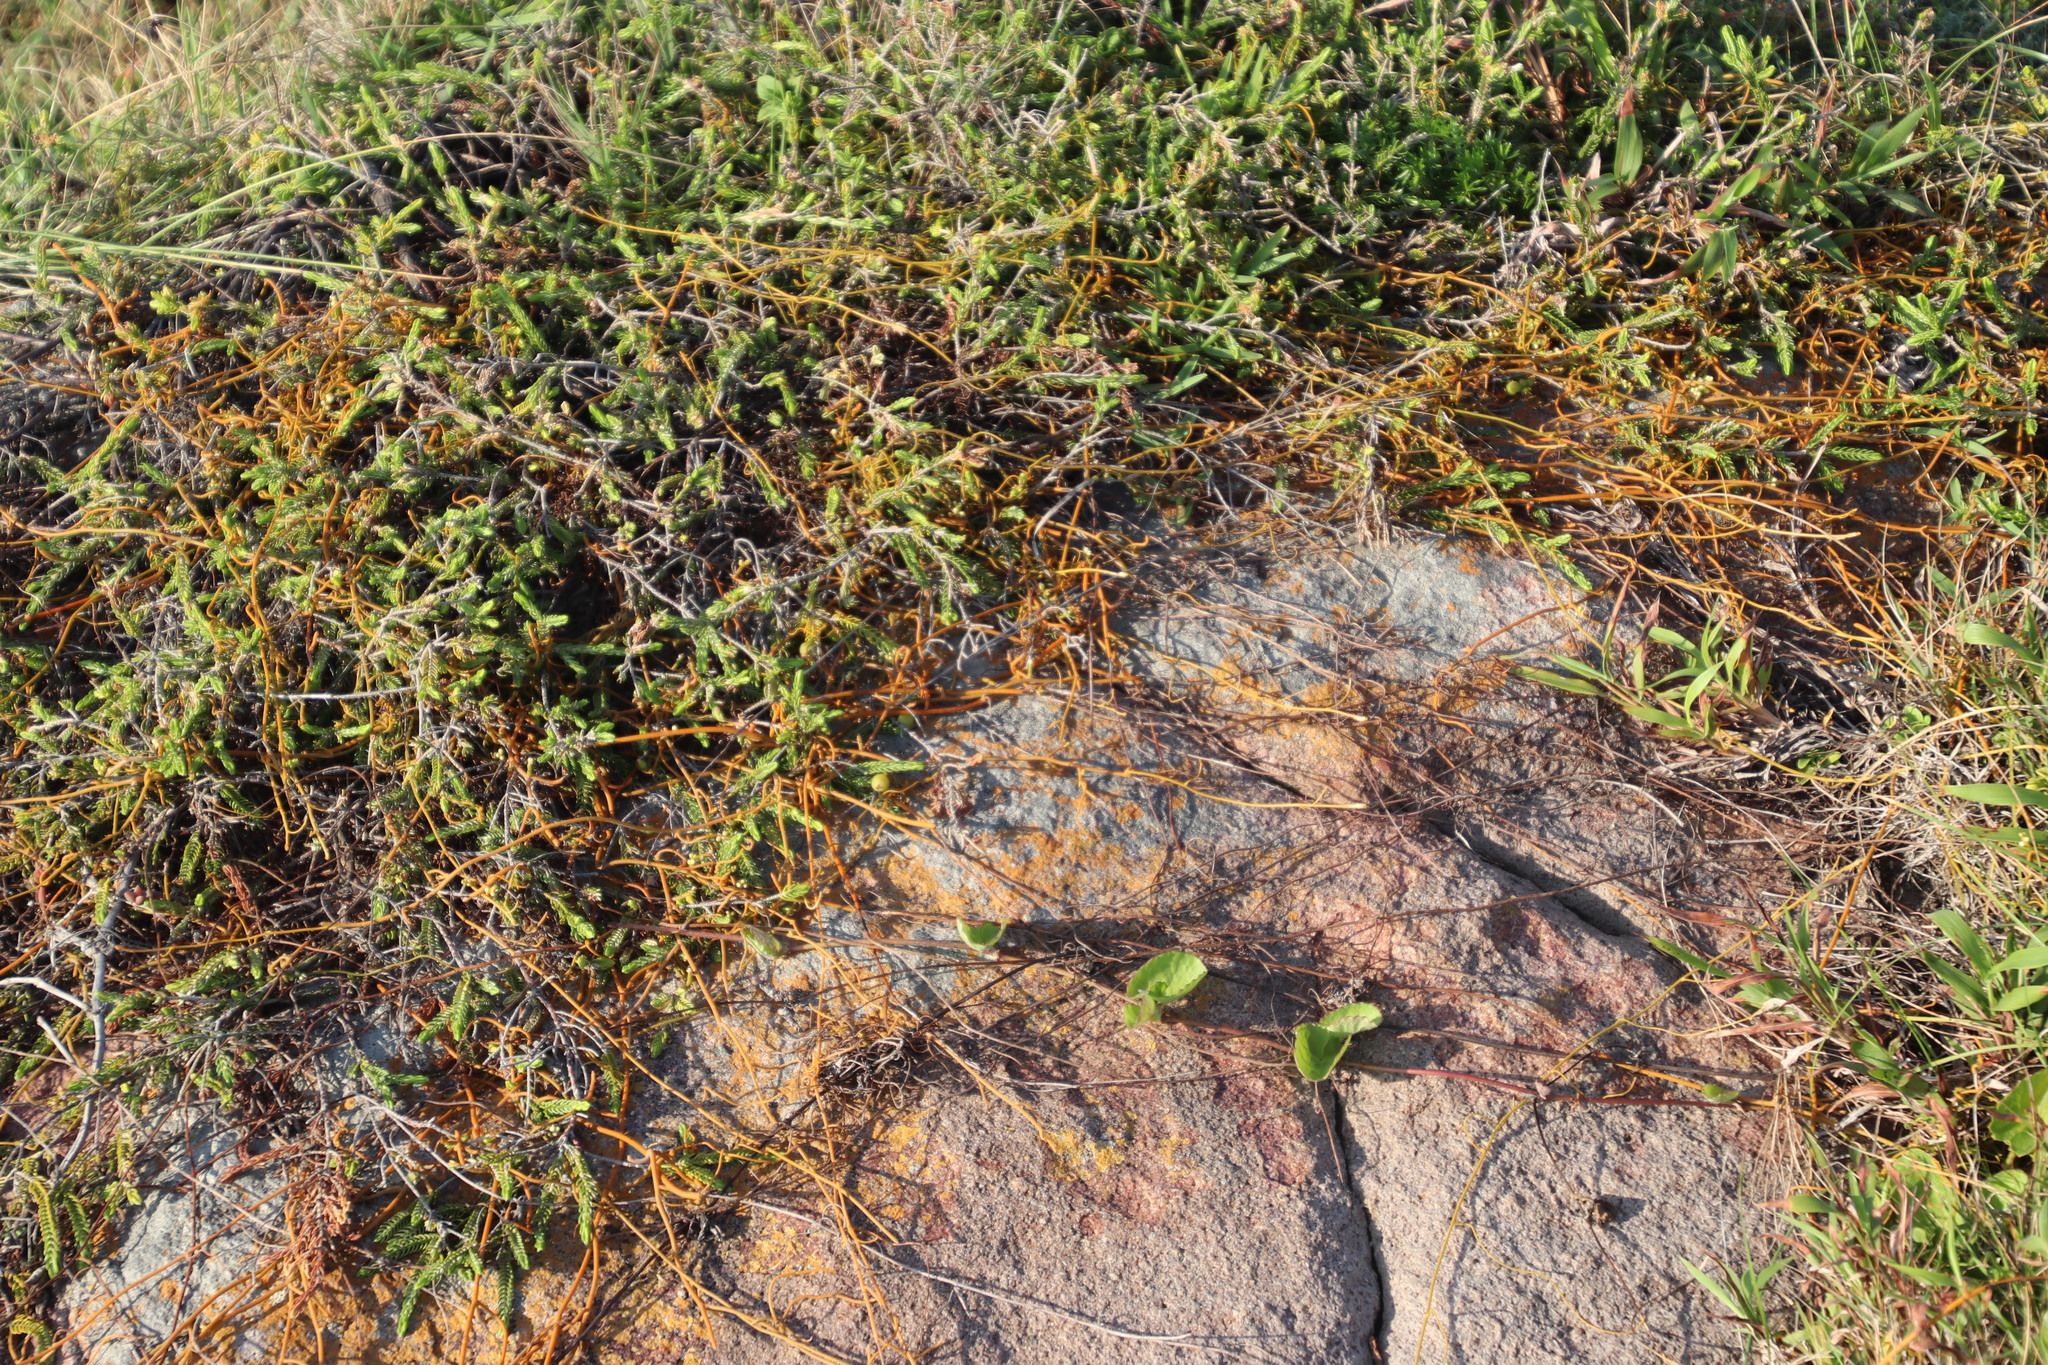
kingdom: Plantae
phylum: Tracheophyta
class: Magnoliopsida
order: Laurales
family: Lauraceae
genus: Cassytha
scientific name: Cassytha pondoensis
